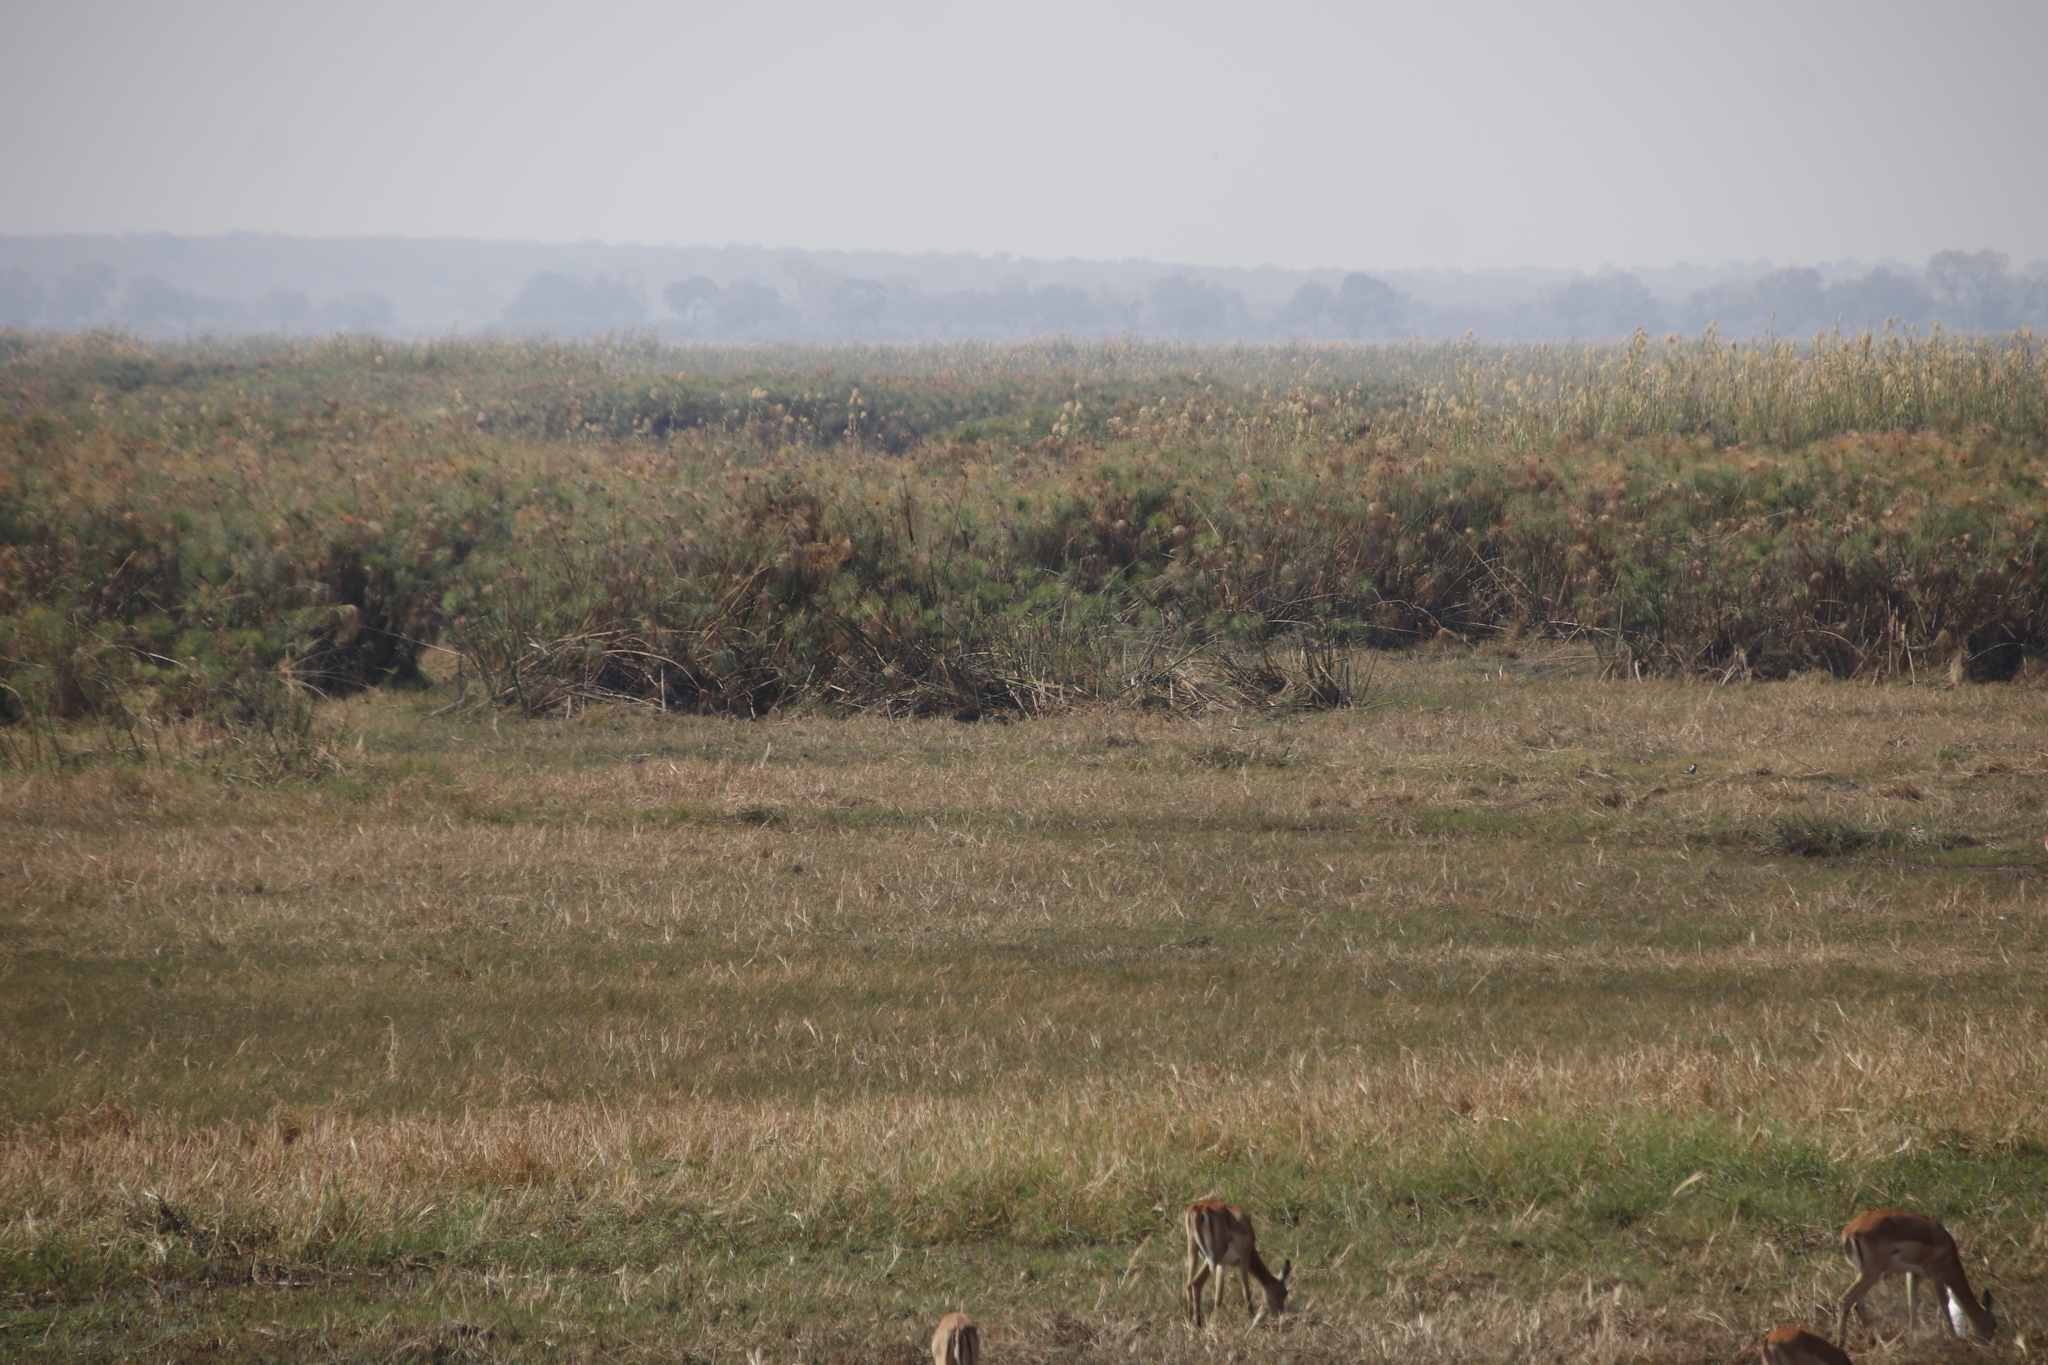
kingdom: Animalia
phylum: Chordata
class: Mammalia
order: Artiodactyla
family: Bovidae
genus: Aepyceros
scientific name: Aepyceros melampus
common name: Impala
